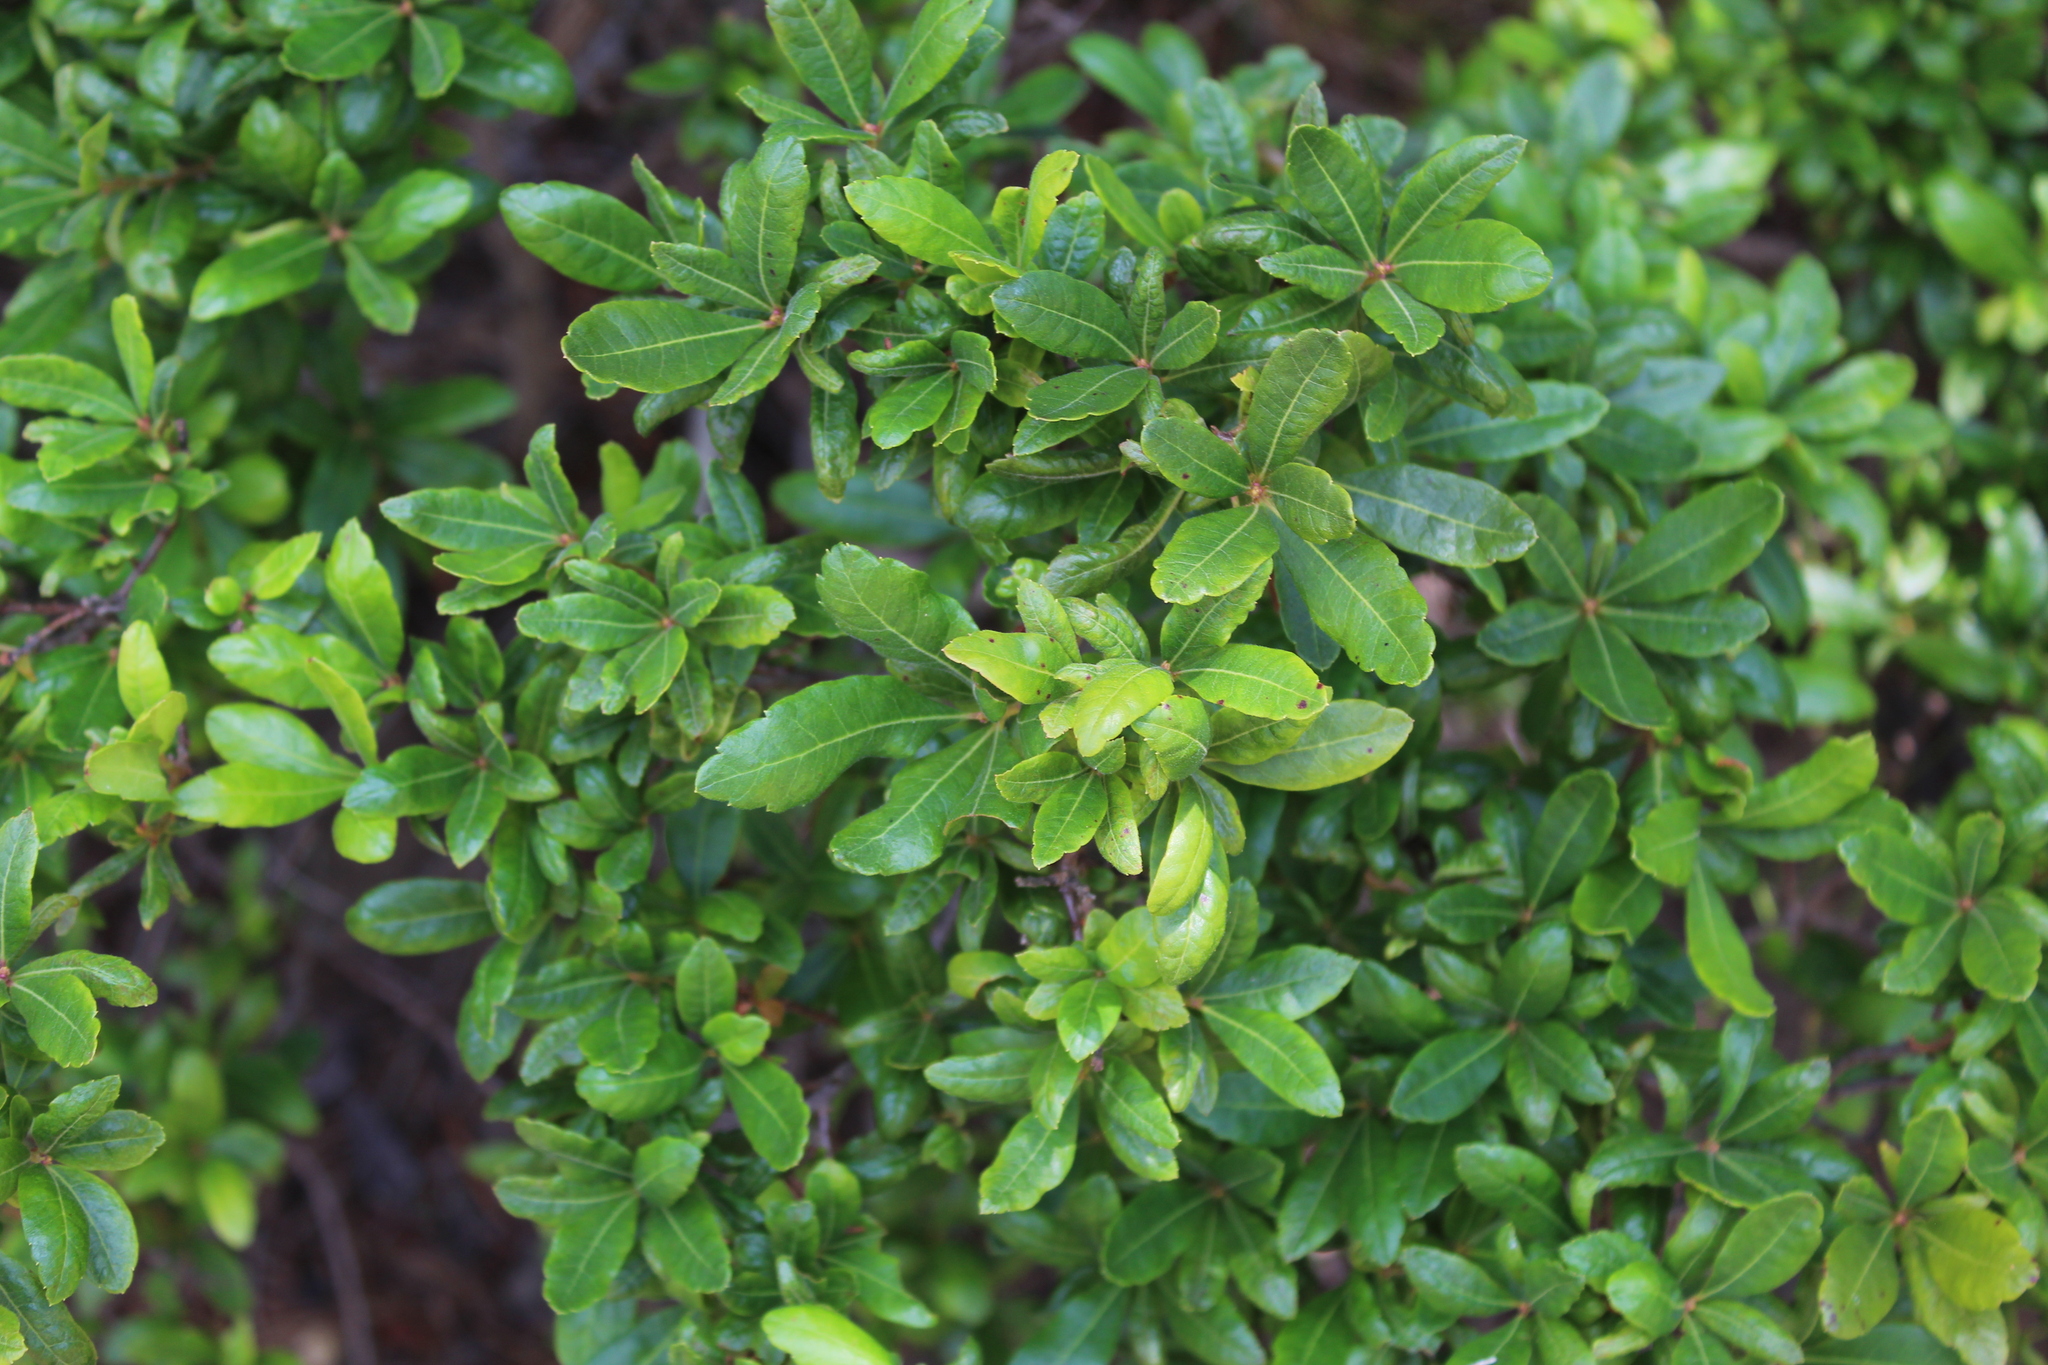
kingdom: Plantae
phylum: Tracheophyta
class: Magnoliopsida
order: Fagales
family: Myricaceae
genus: Morella
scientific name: Morella pensylvanica
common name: Northern bayberry
